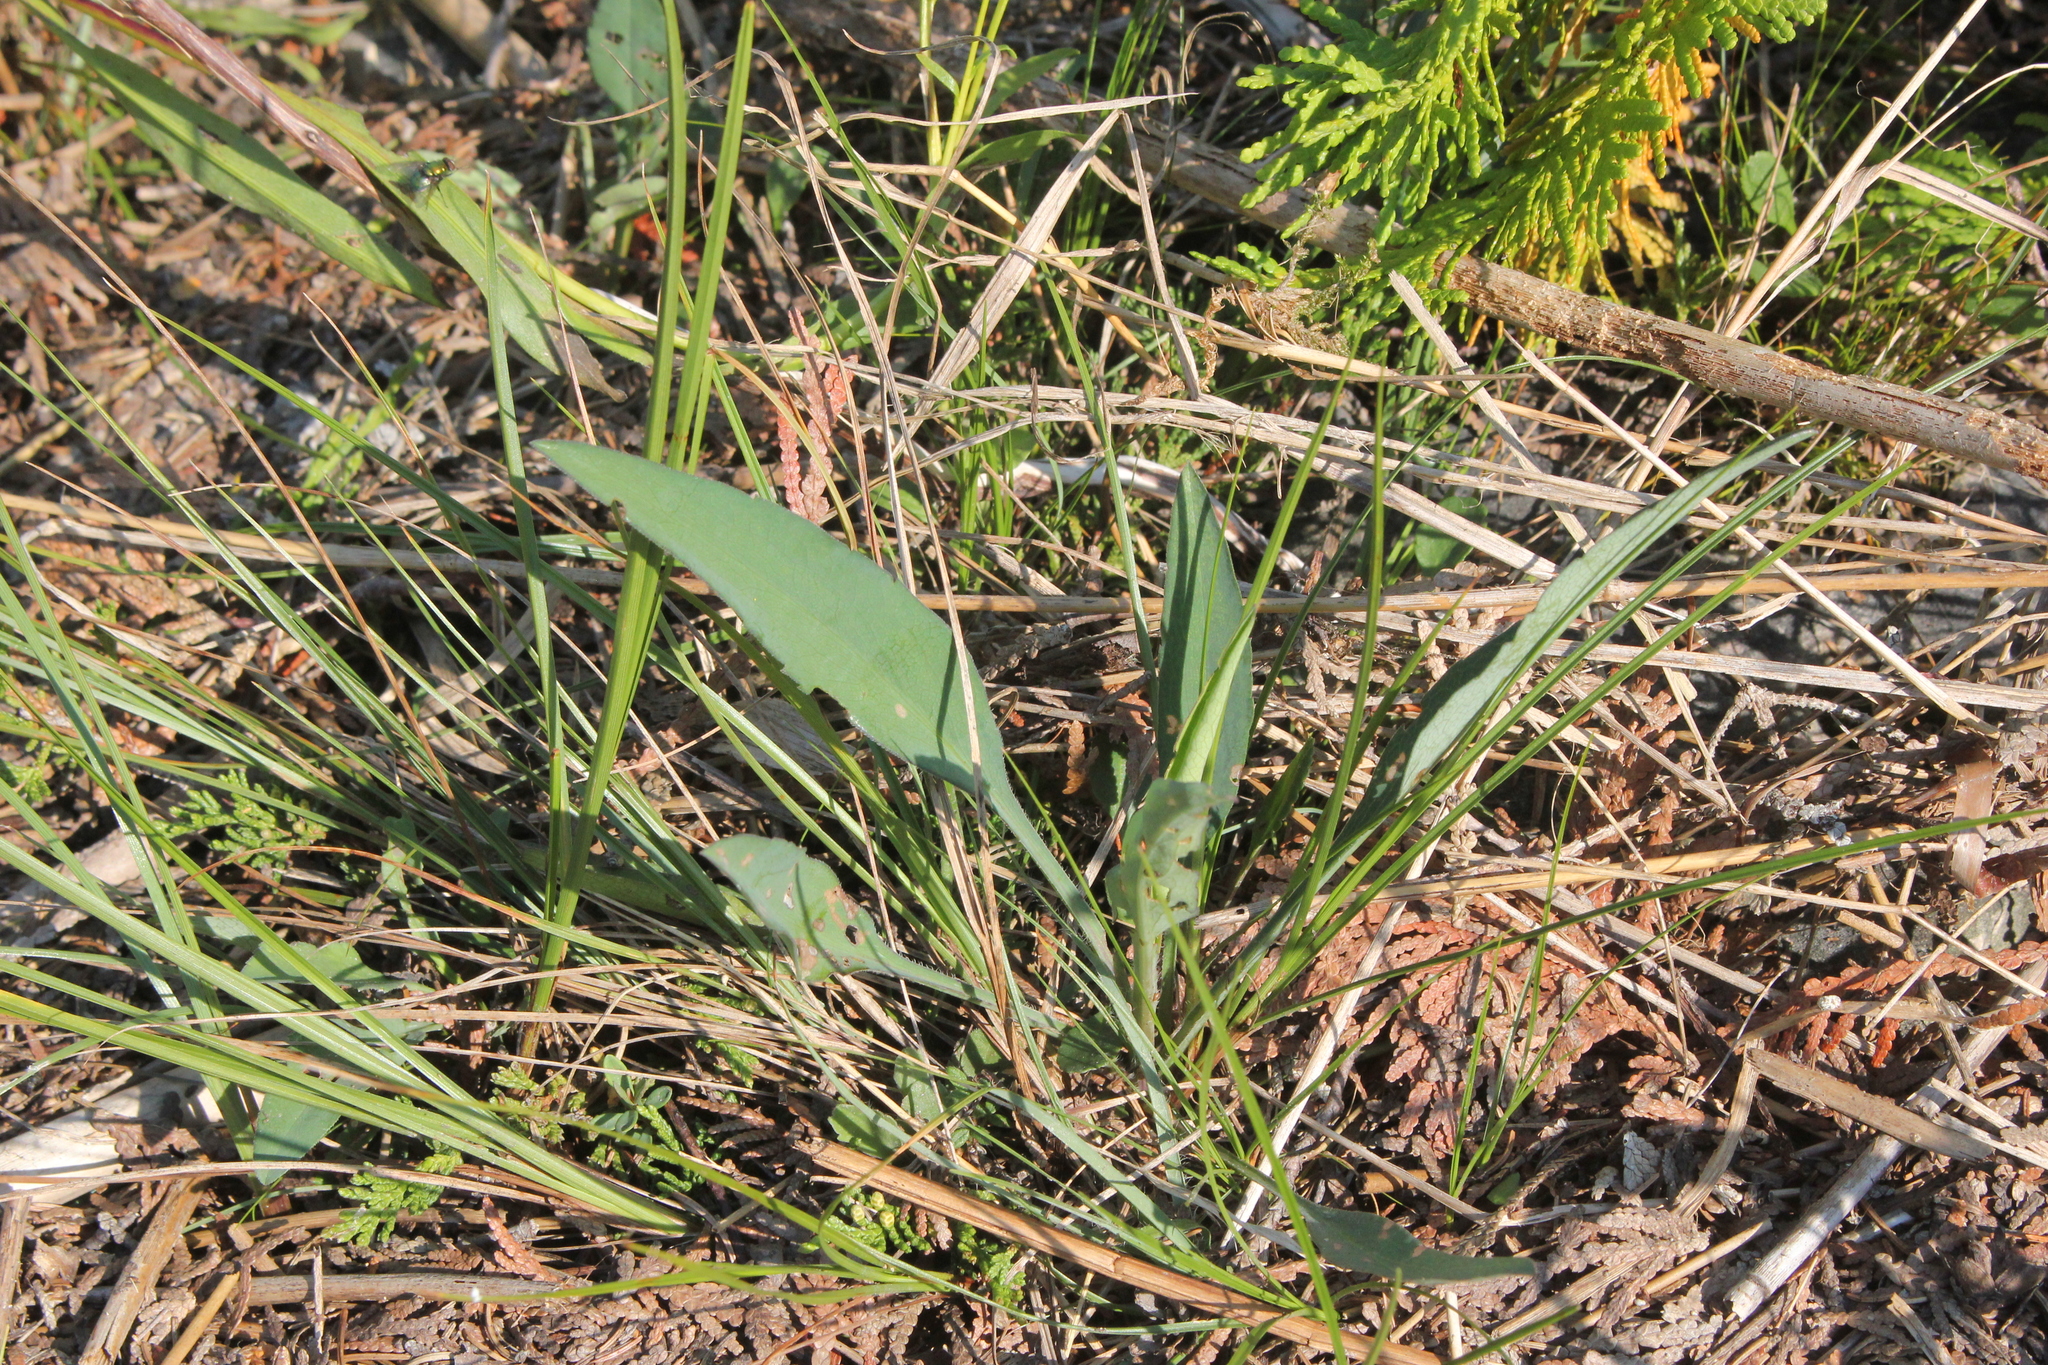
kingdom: Plantae
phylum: Tracheophyta
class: Magnoliopsida
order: Asterales
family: Asteraceae
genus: Solidago
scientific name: Solidago ohioensis
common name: Ohio goldenrod
